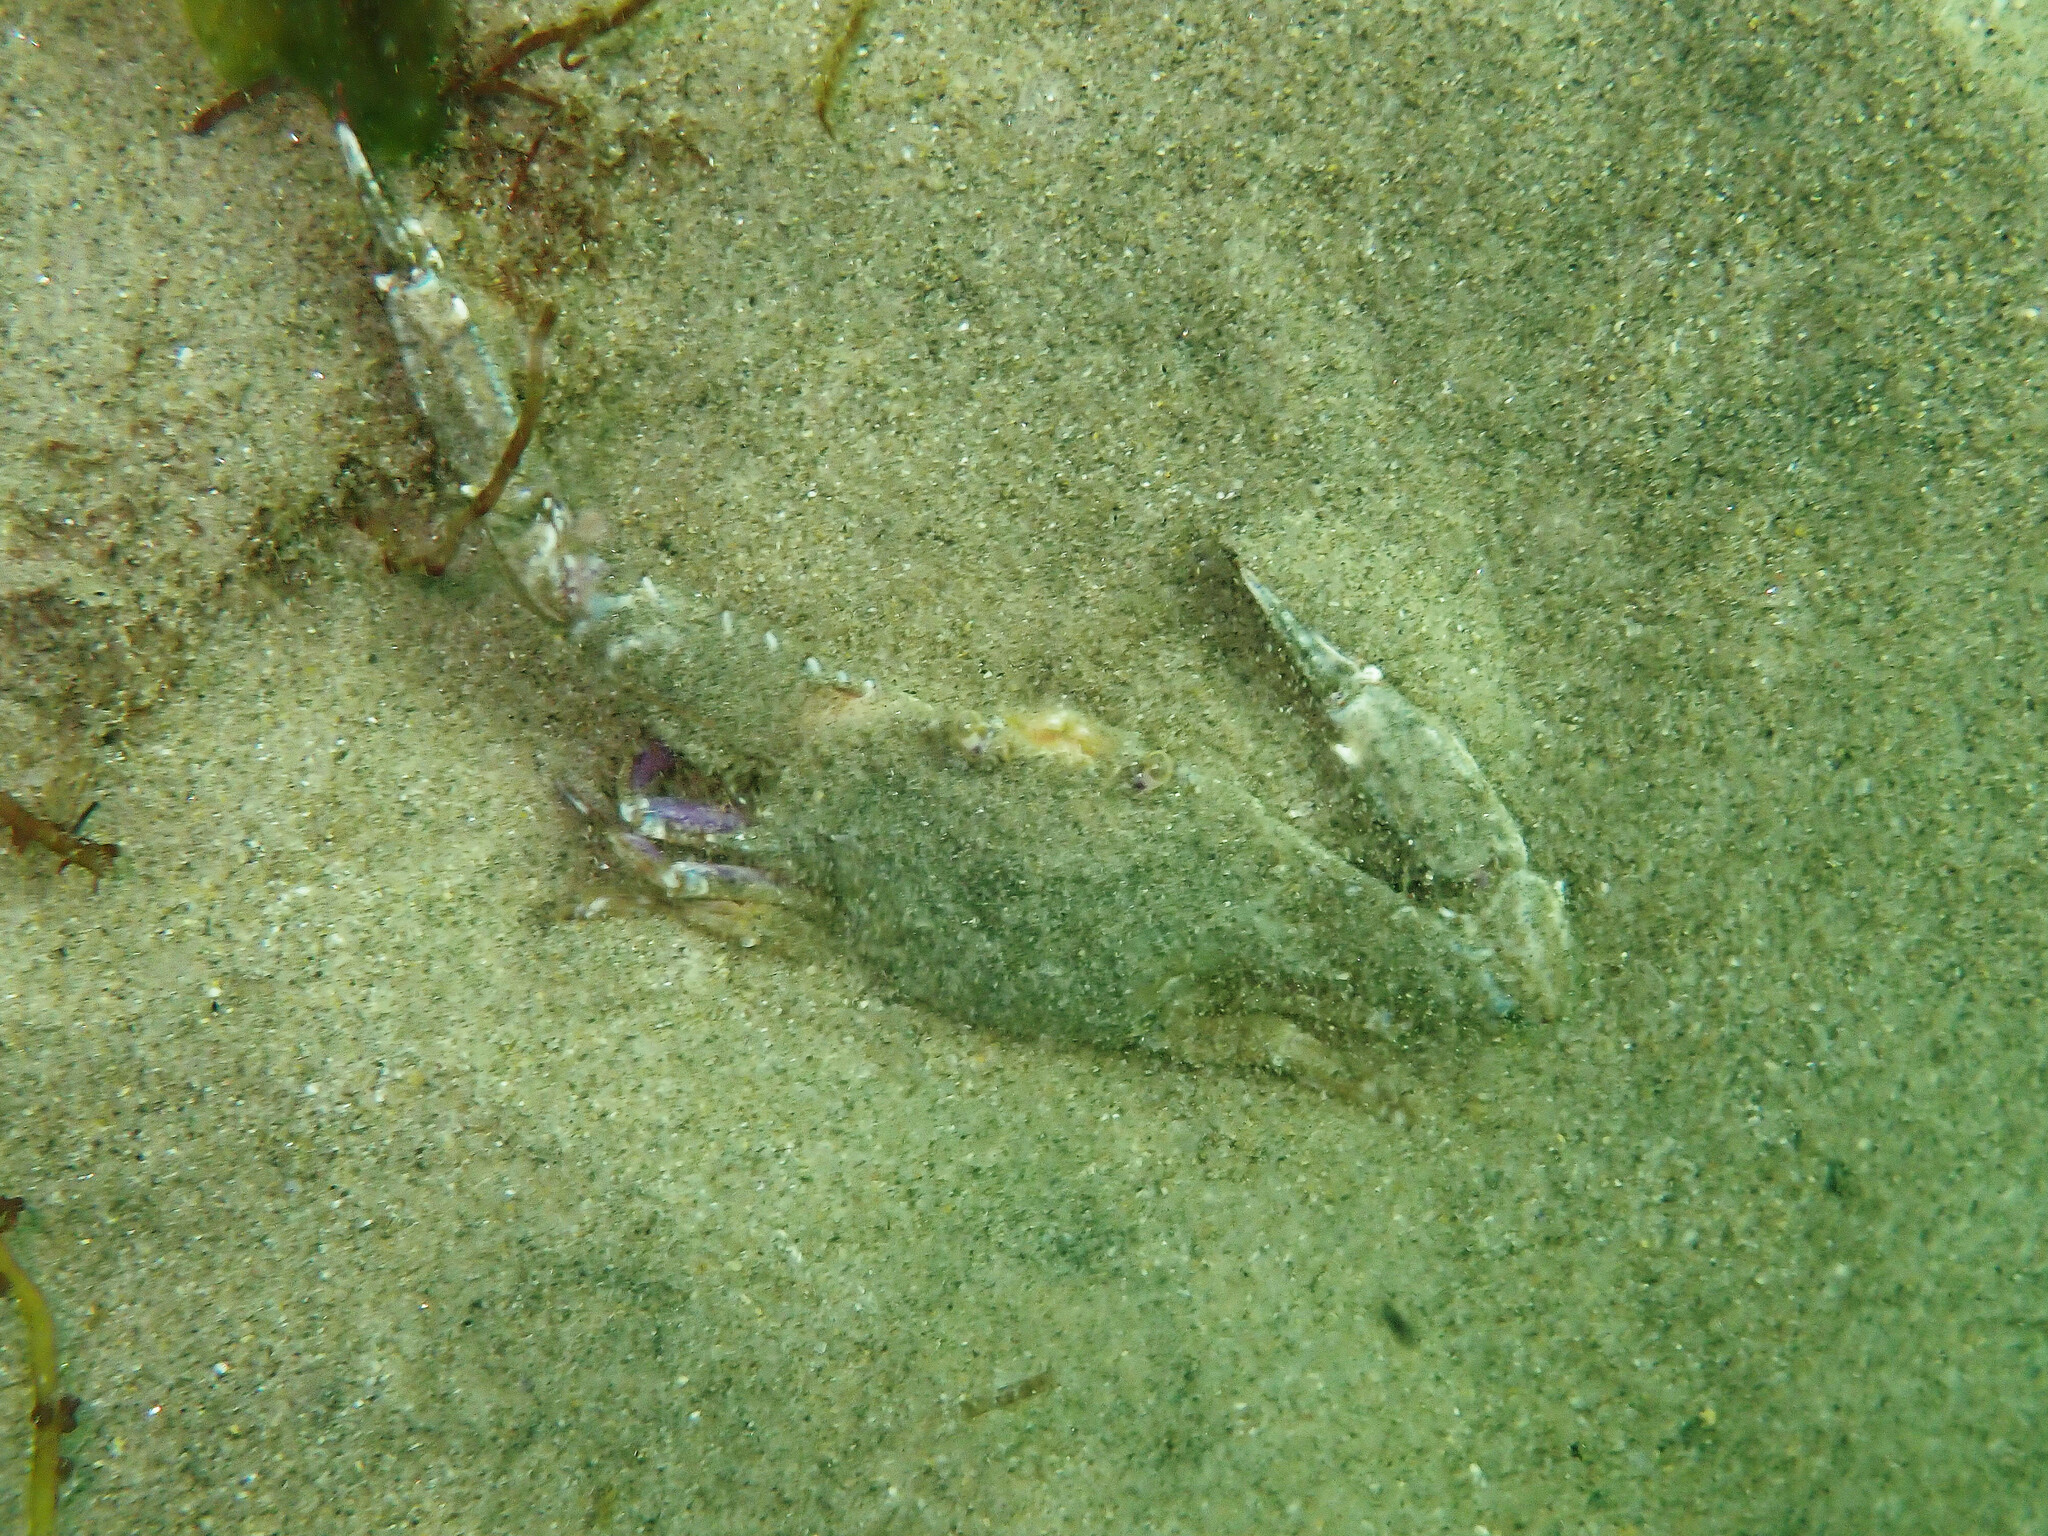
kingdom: Animalia
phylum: Arthropoda
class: Malacostraca
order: Decapoda
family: Portunidae
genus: Achelous
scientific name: Achelous xantusii
